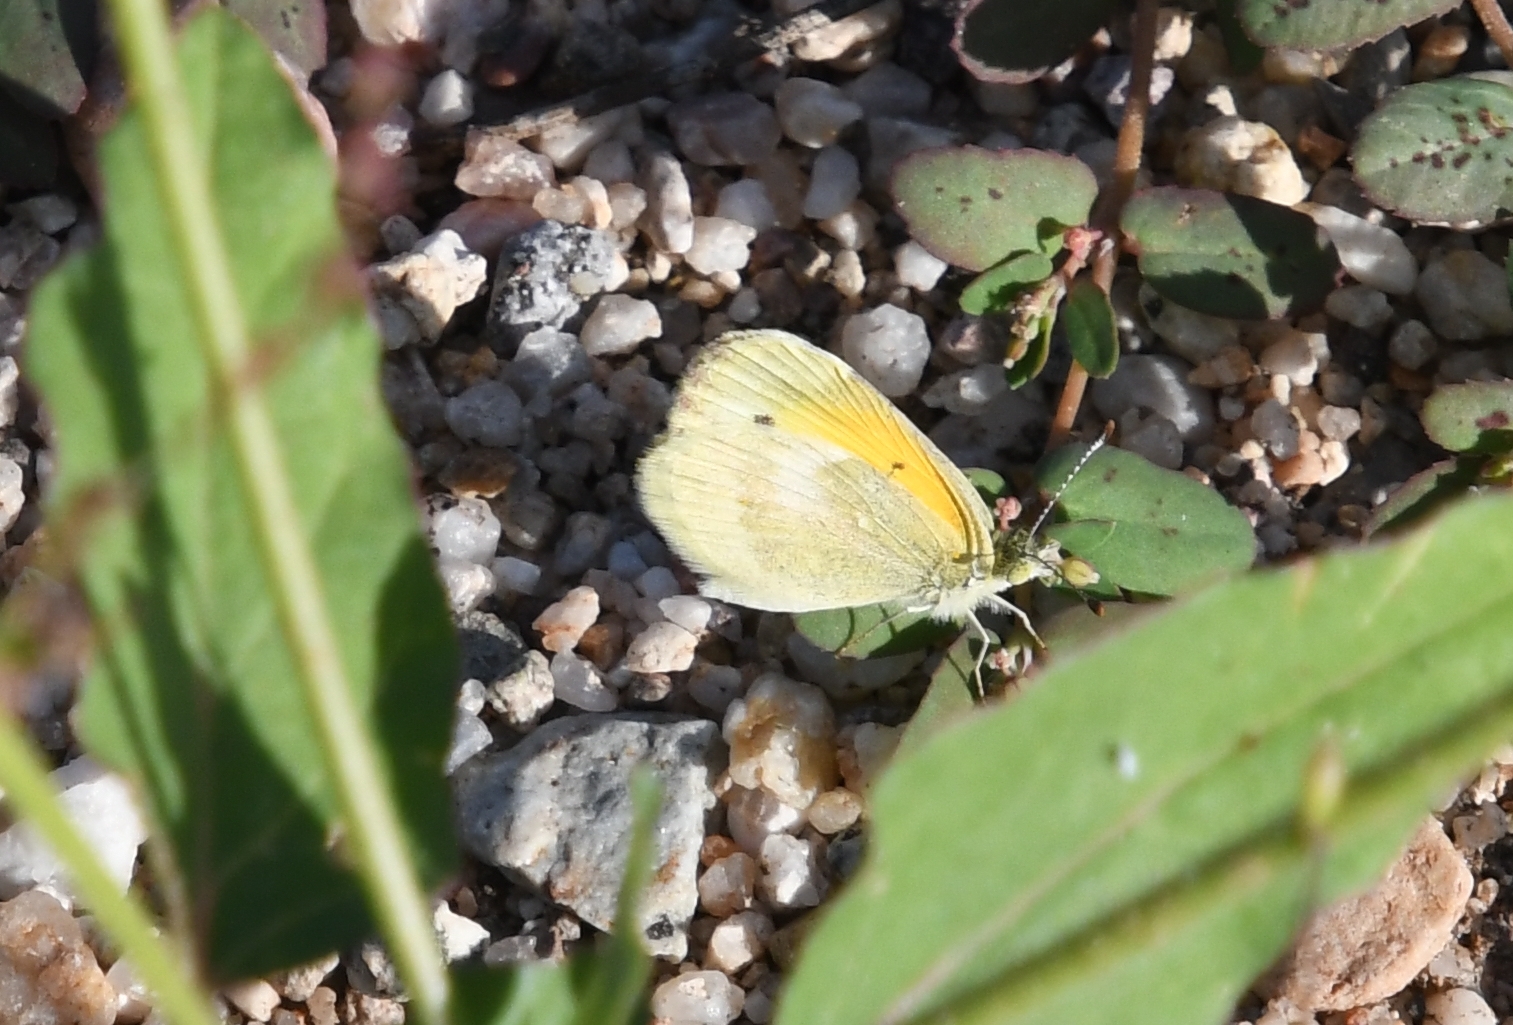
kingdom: Animalia
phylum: Arthropoda
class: Insecta
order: Lepidoptera
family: Pieridae
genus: Nathalis
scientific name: Nathalis iole
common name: Dainty sulphur
